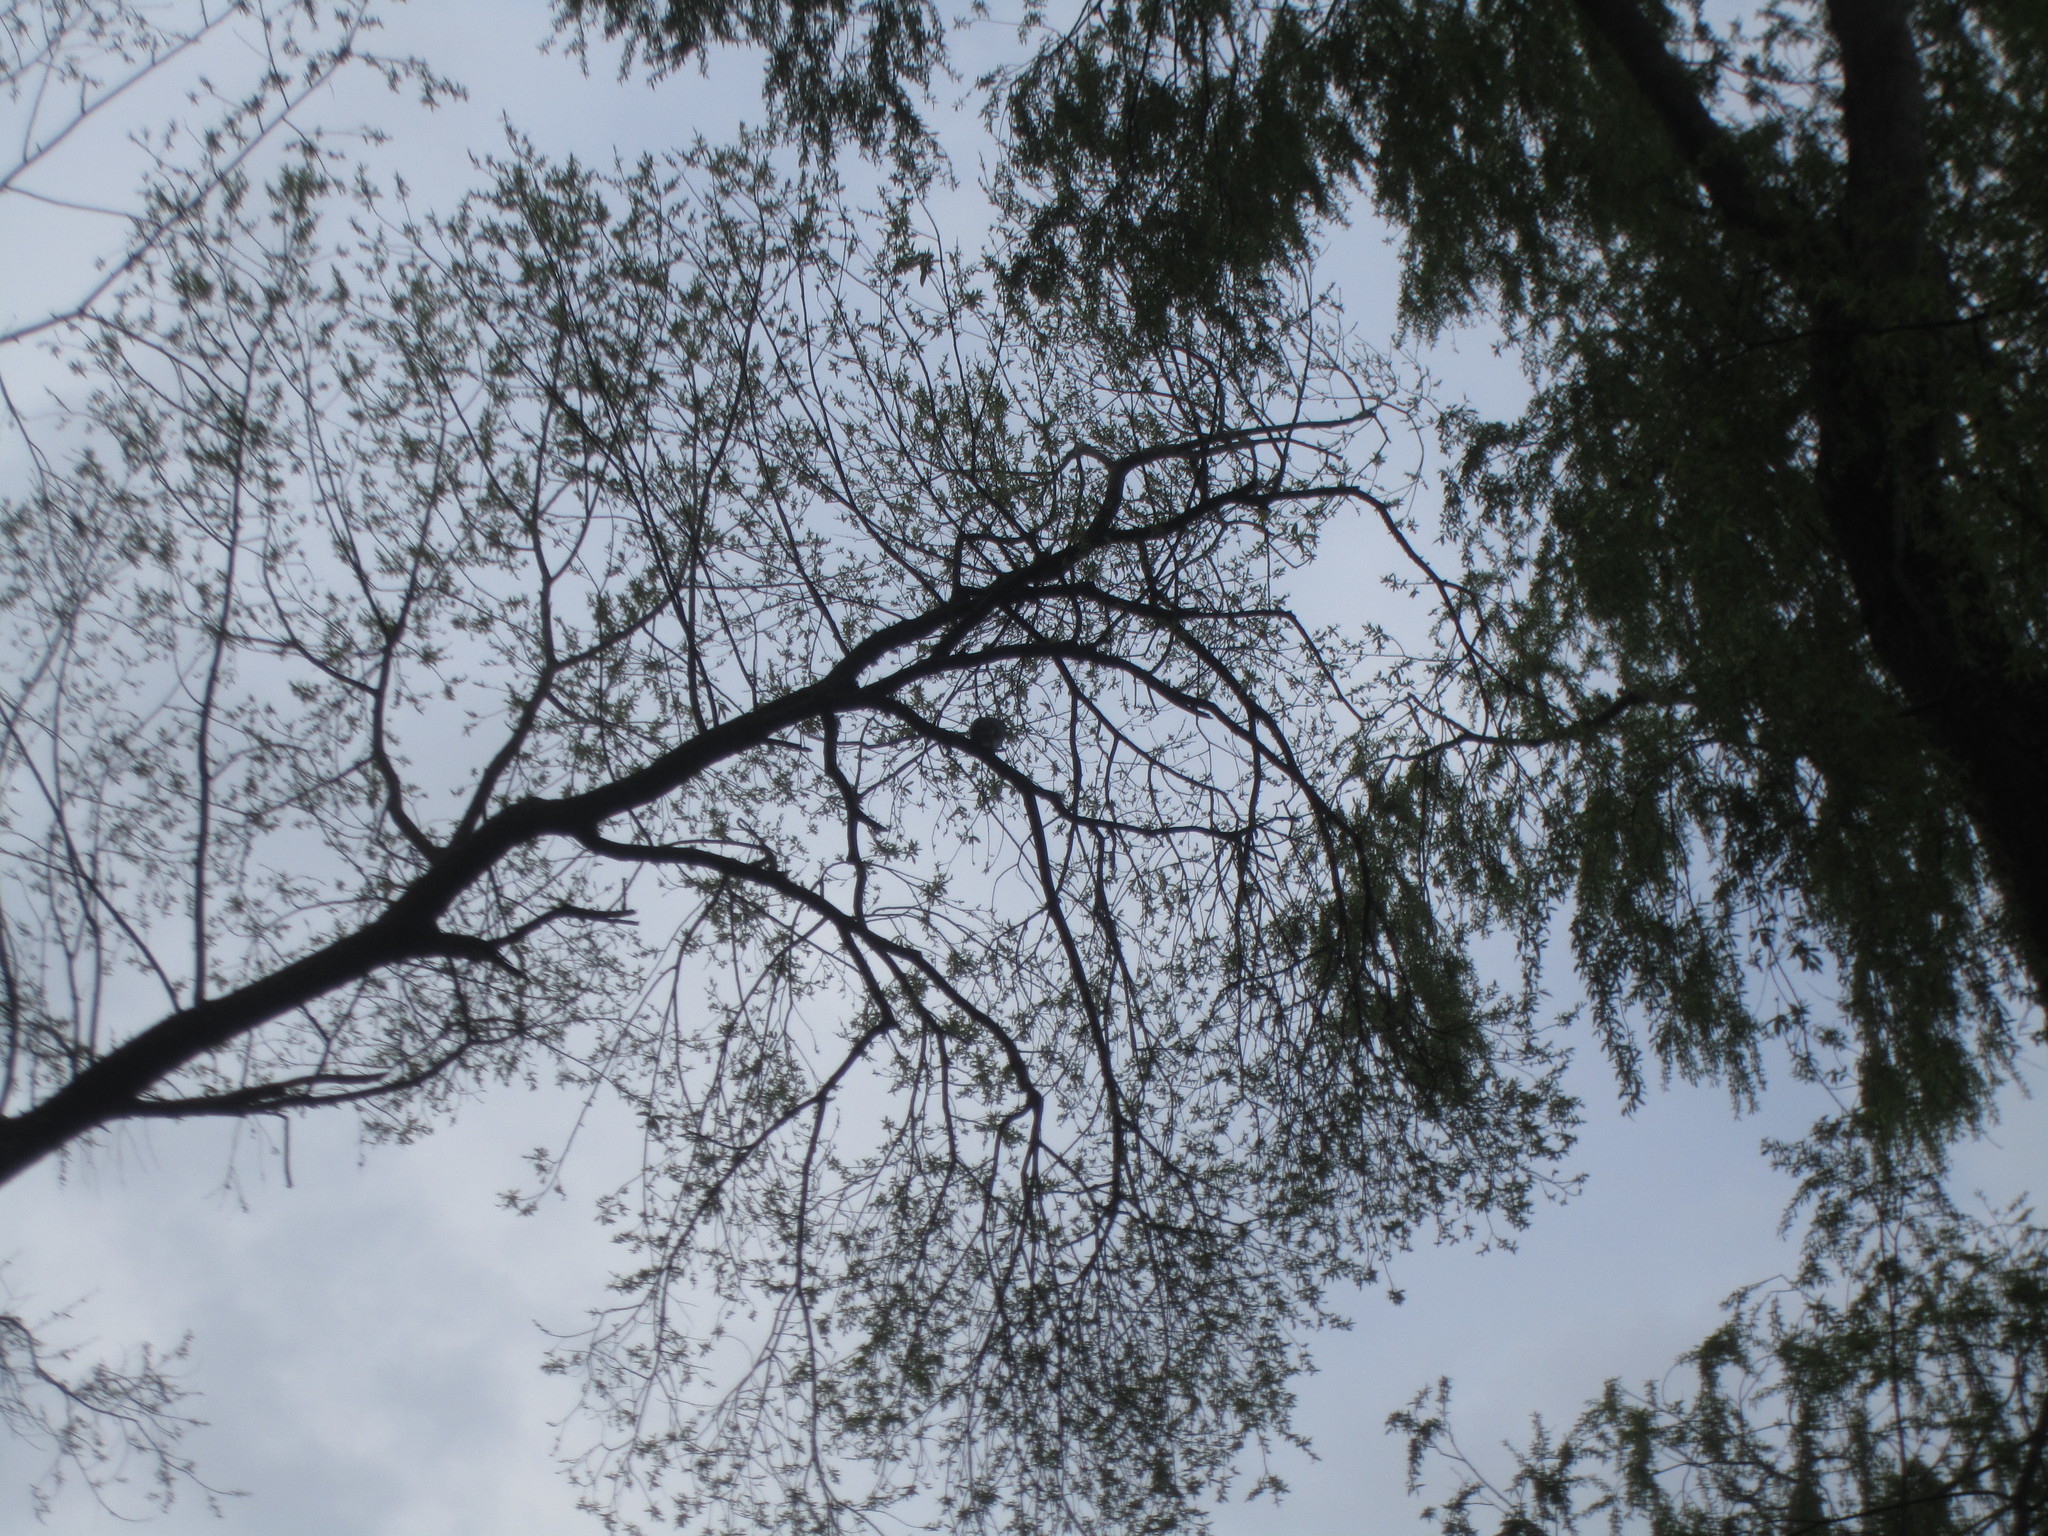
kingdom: Animalia
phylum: Chordata
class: Aves
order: Columbiformes
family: Columbidae
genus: Hemiphaga
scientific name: Hemiphaga novaeseelandiae
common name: New zealand pigeon
